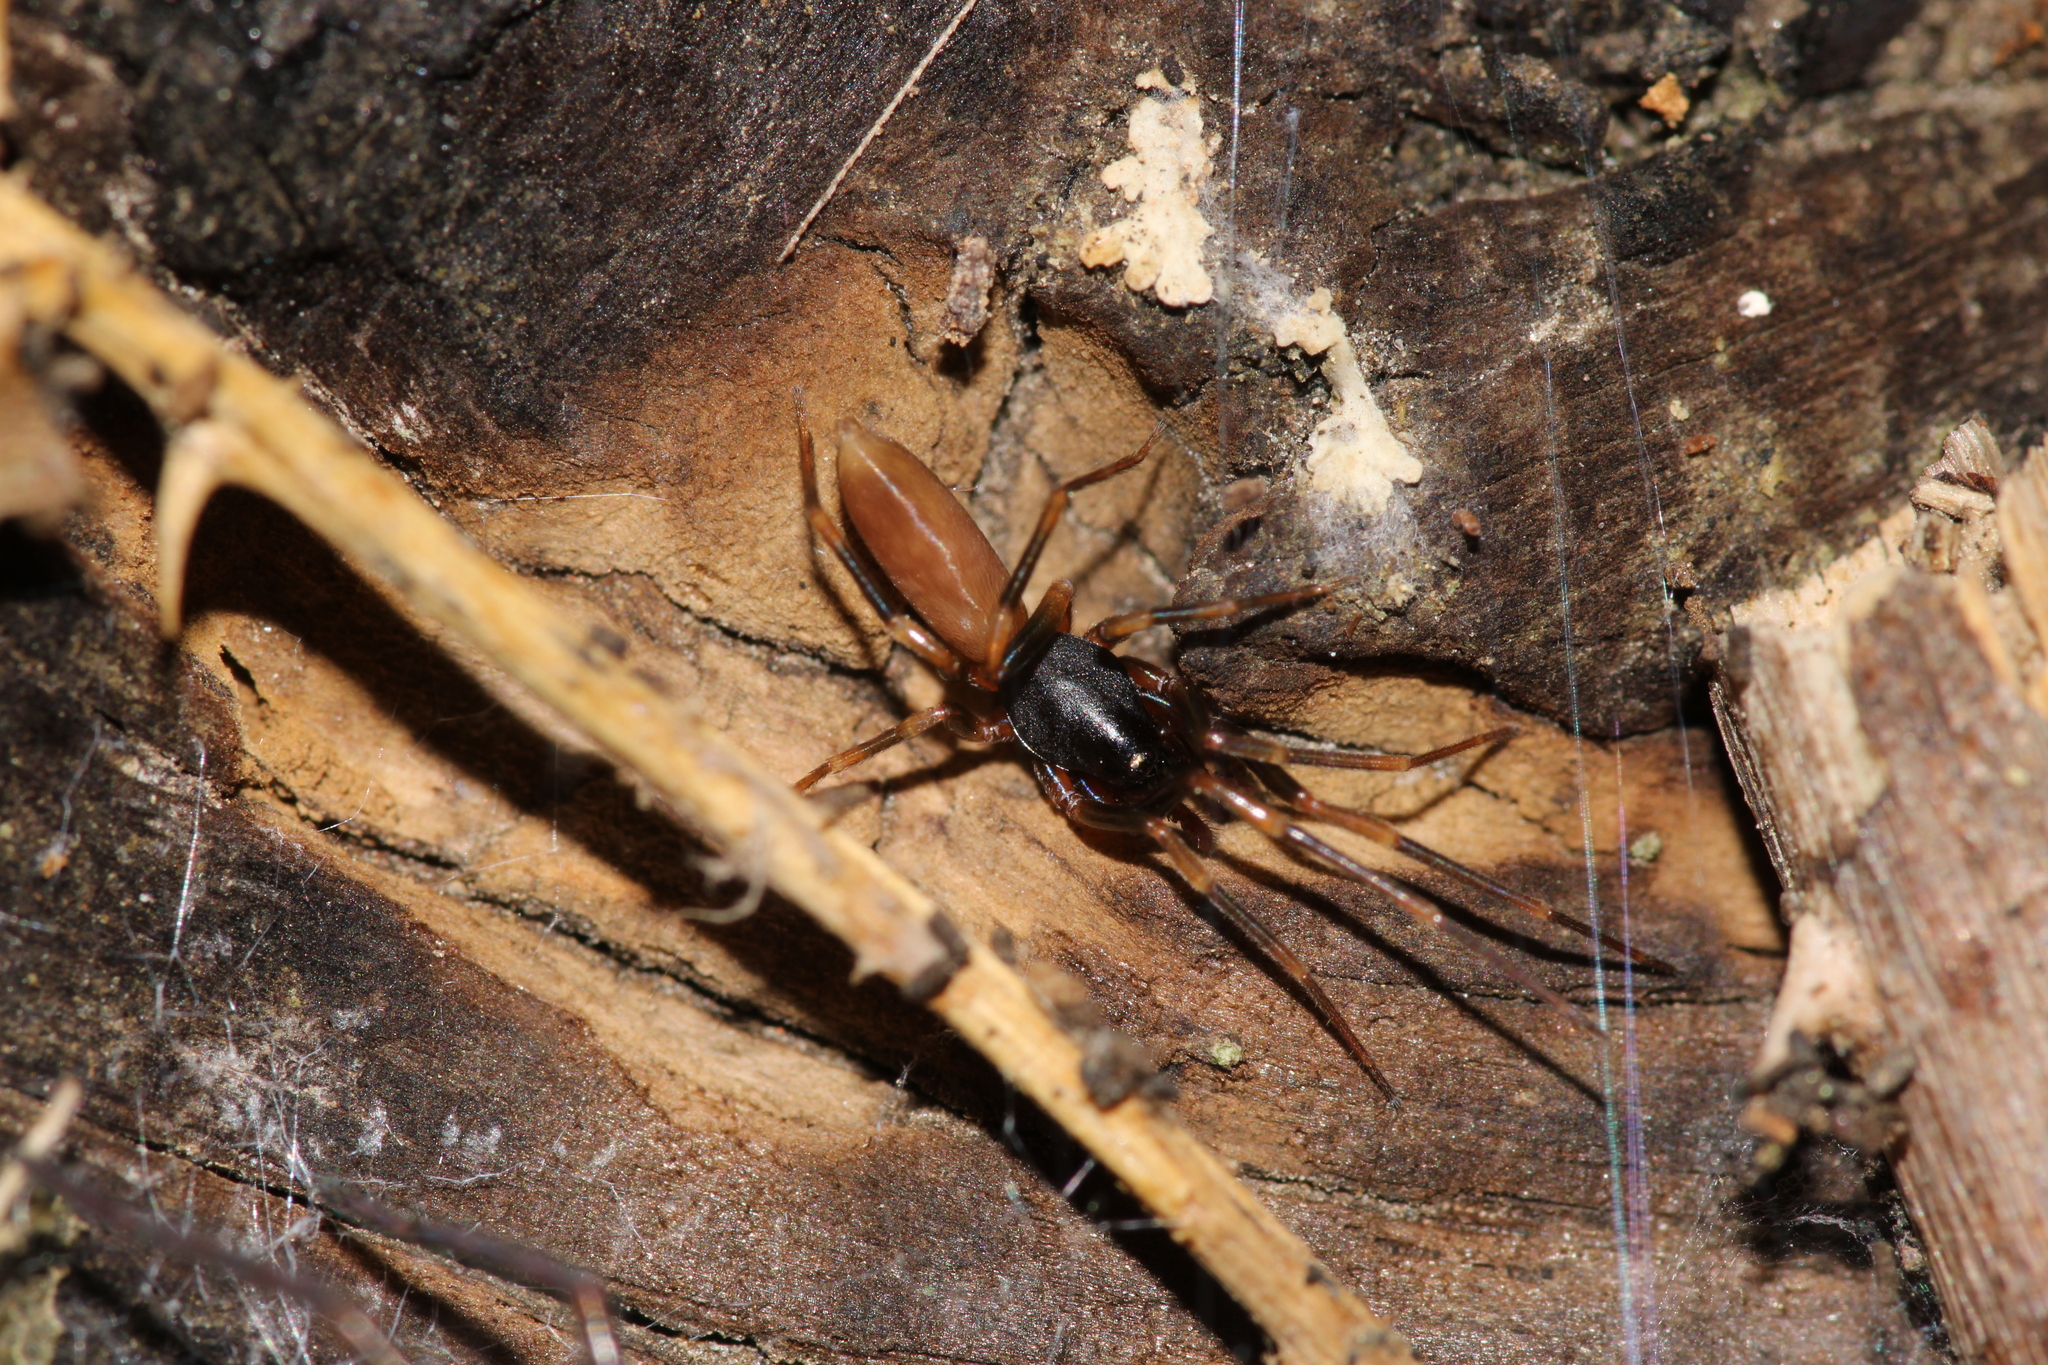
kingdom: Animalia
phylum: Arthropoda
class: Arachnida
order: Araneae
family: Dysderidae
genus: Harpactea
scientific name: Harpactea hombergi
